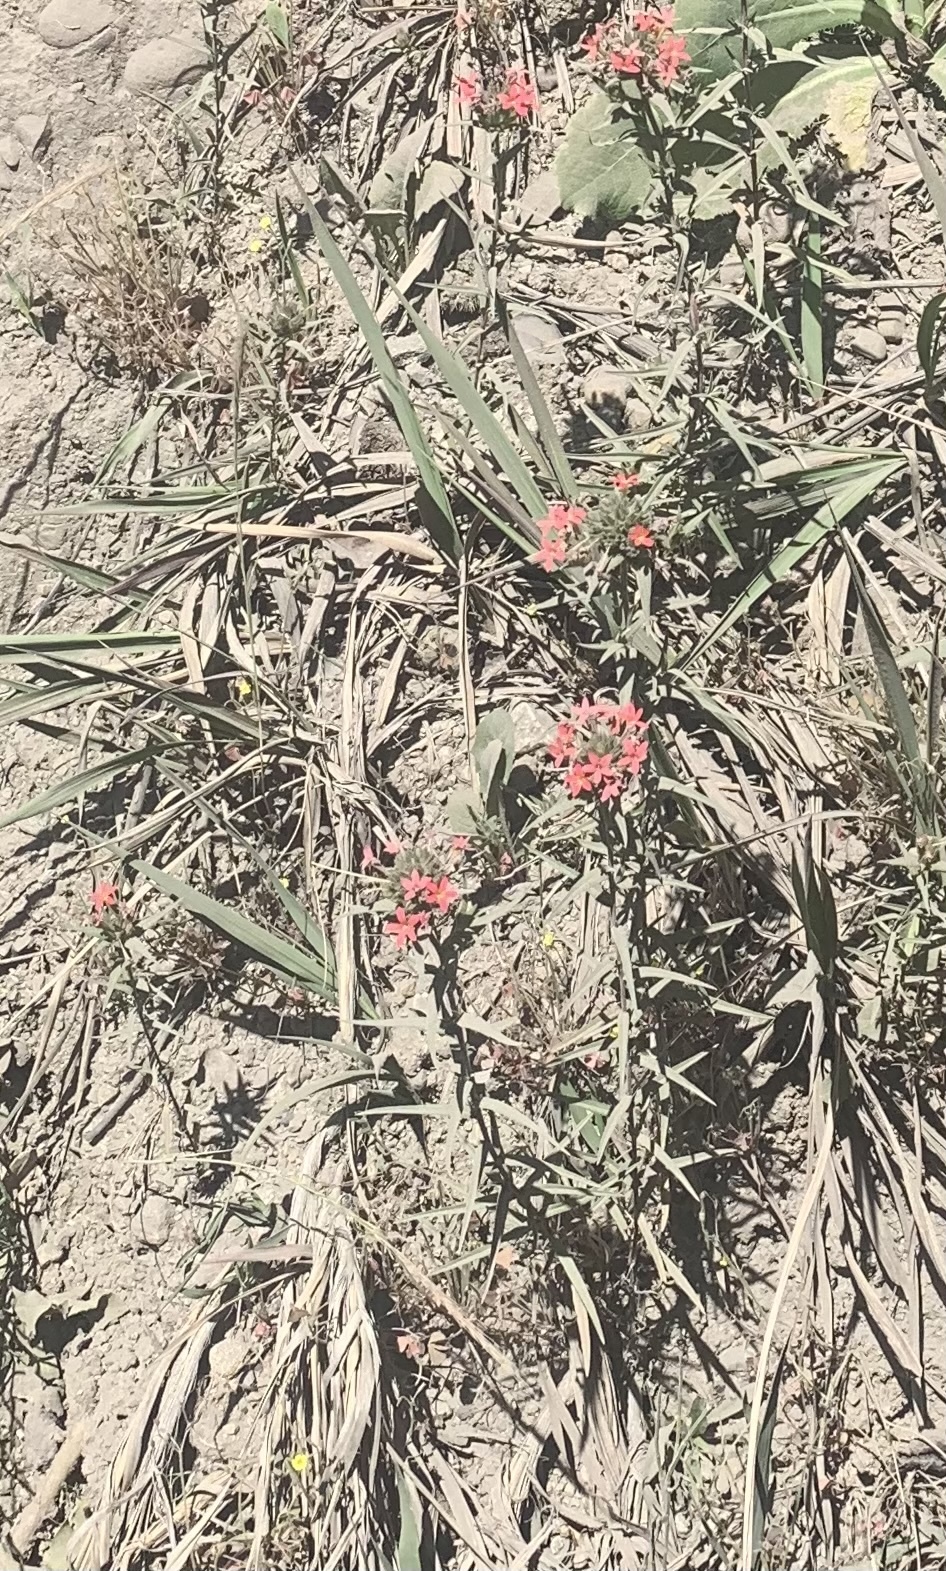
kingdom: Plantae
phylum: Tracheophyta
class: Magnoliopsida
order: Ericales
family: Polemoniaceae
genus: Collomia
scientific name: Collomia biflora
